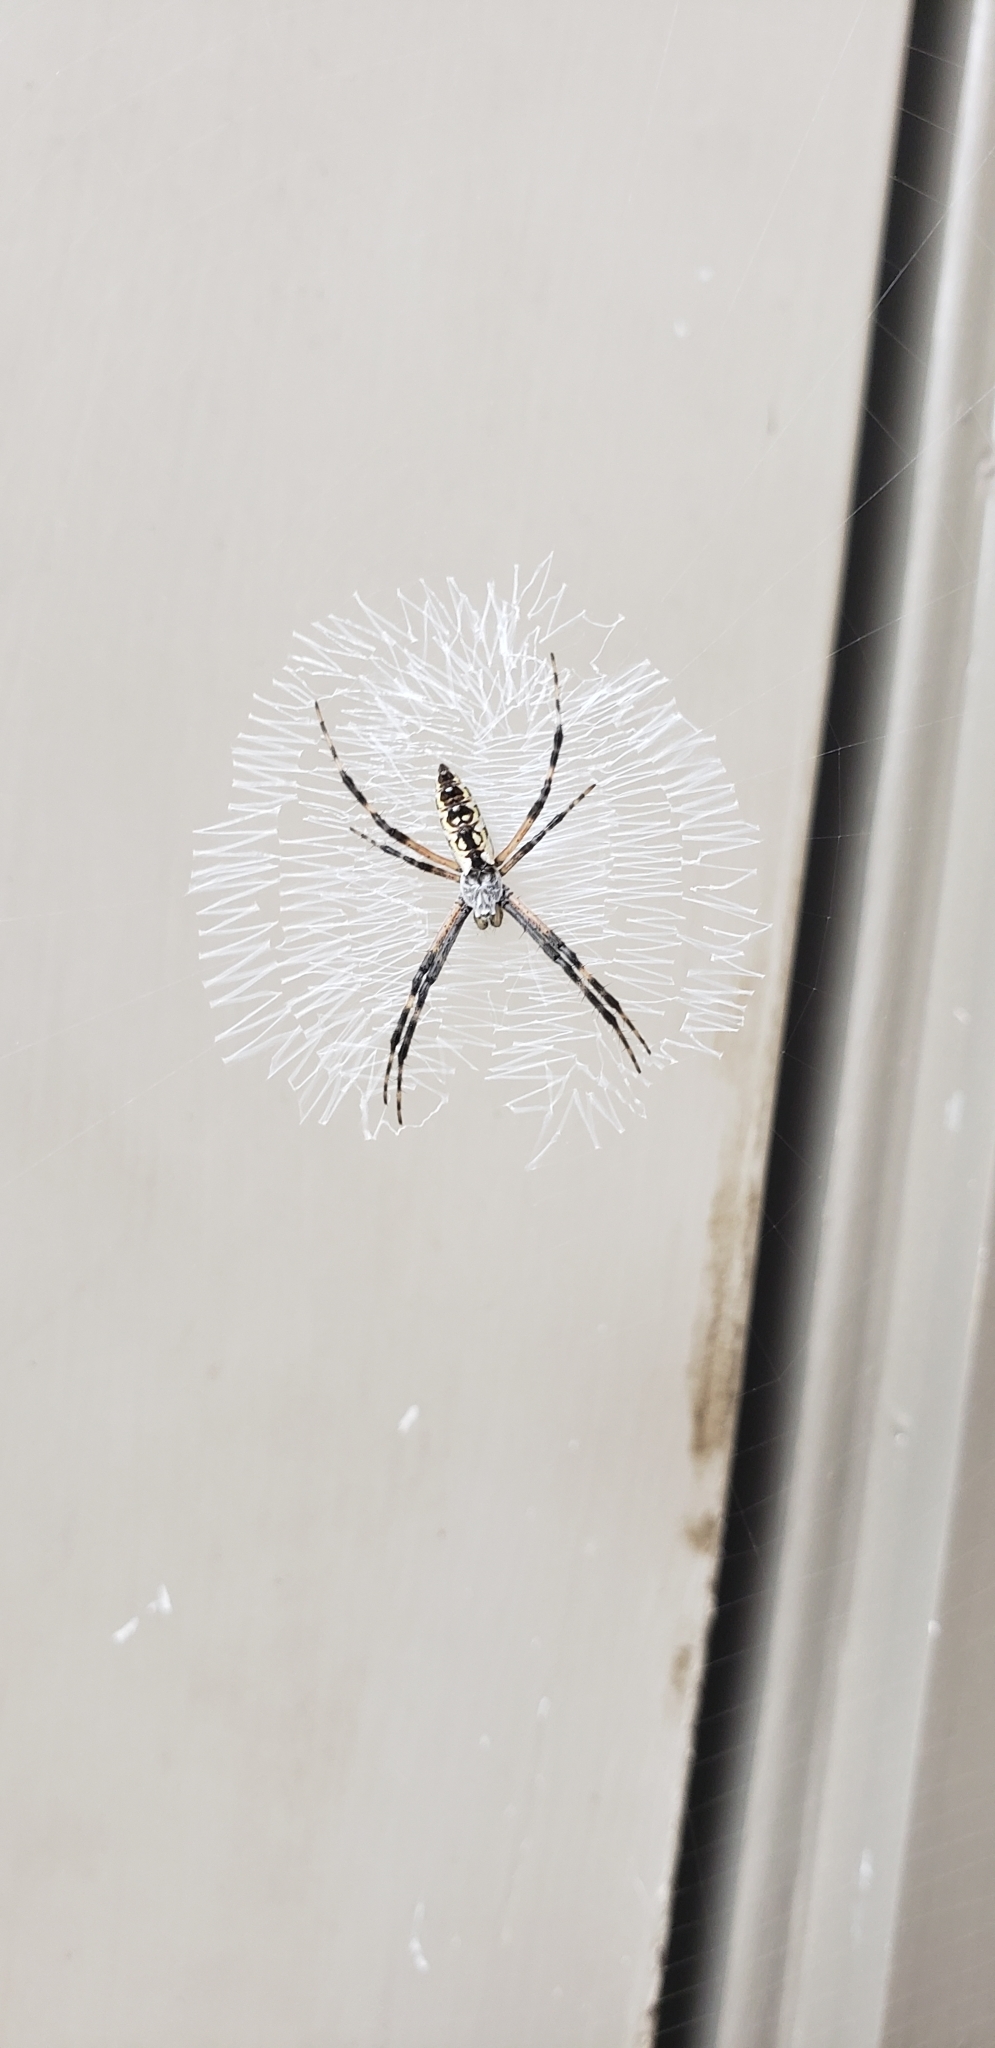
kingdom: Animalia
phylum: Arthropoda
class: Arachnida
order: Araneae
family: Araneidae
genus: Argiope
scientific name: Argiope aurantia
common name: Orb weavers
